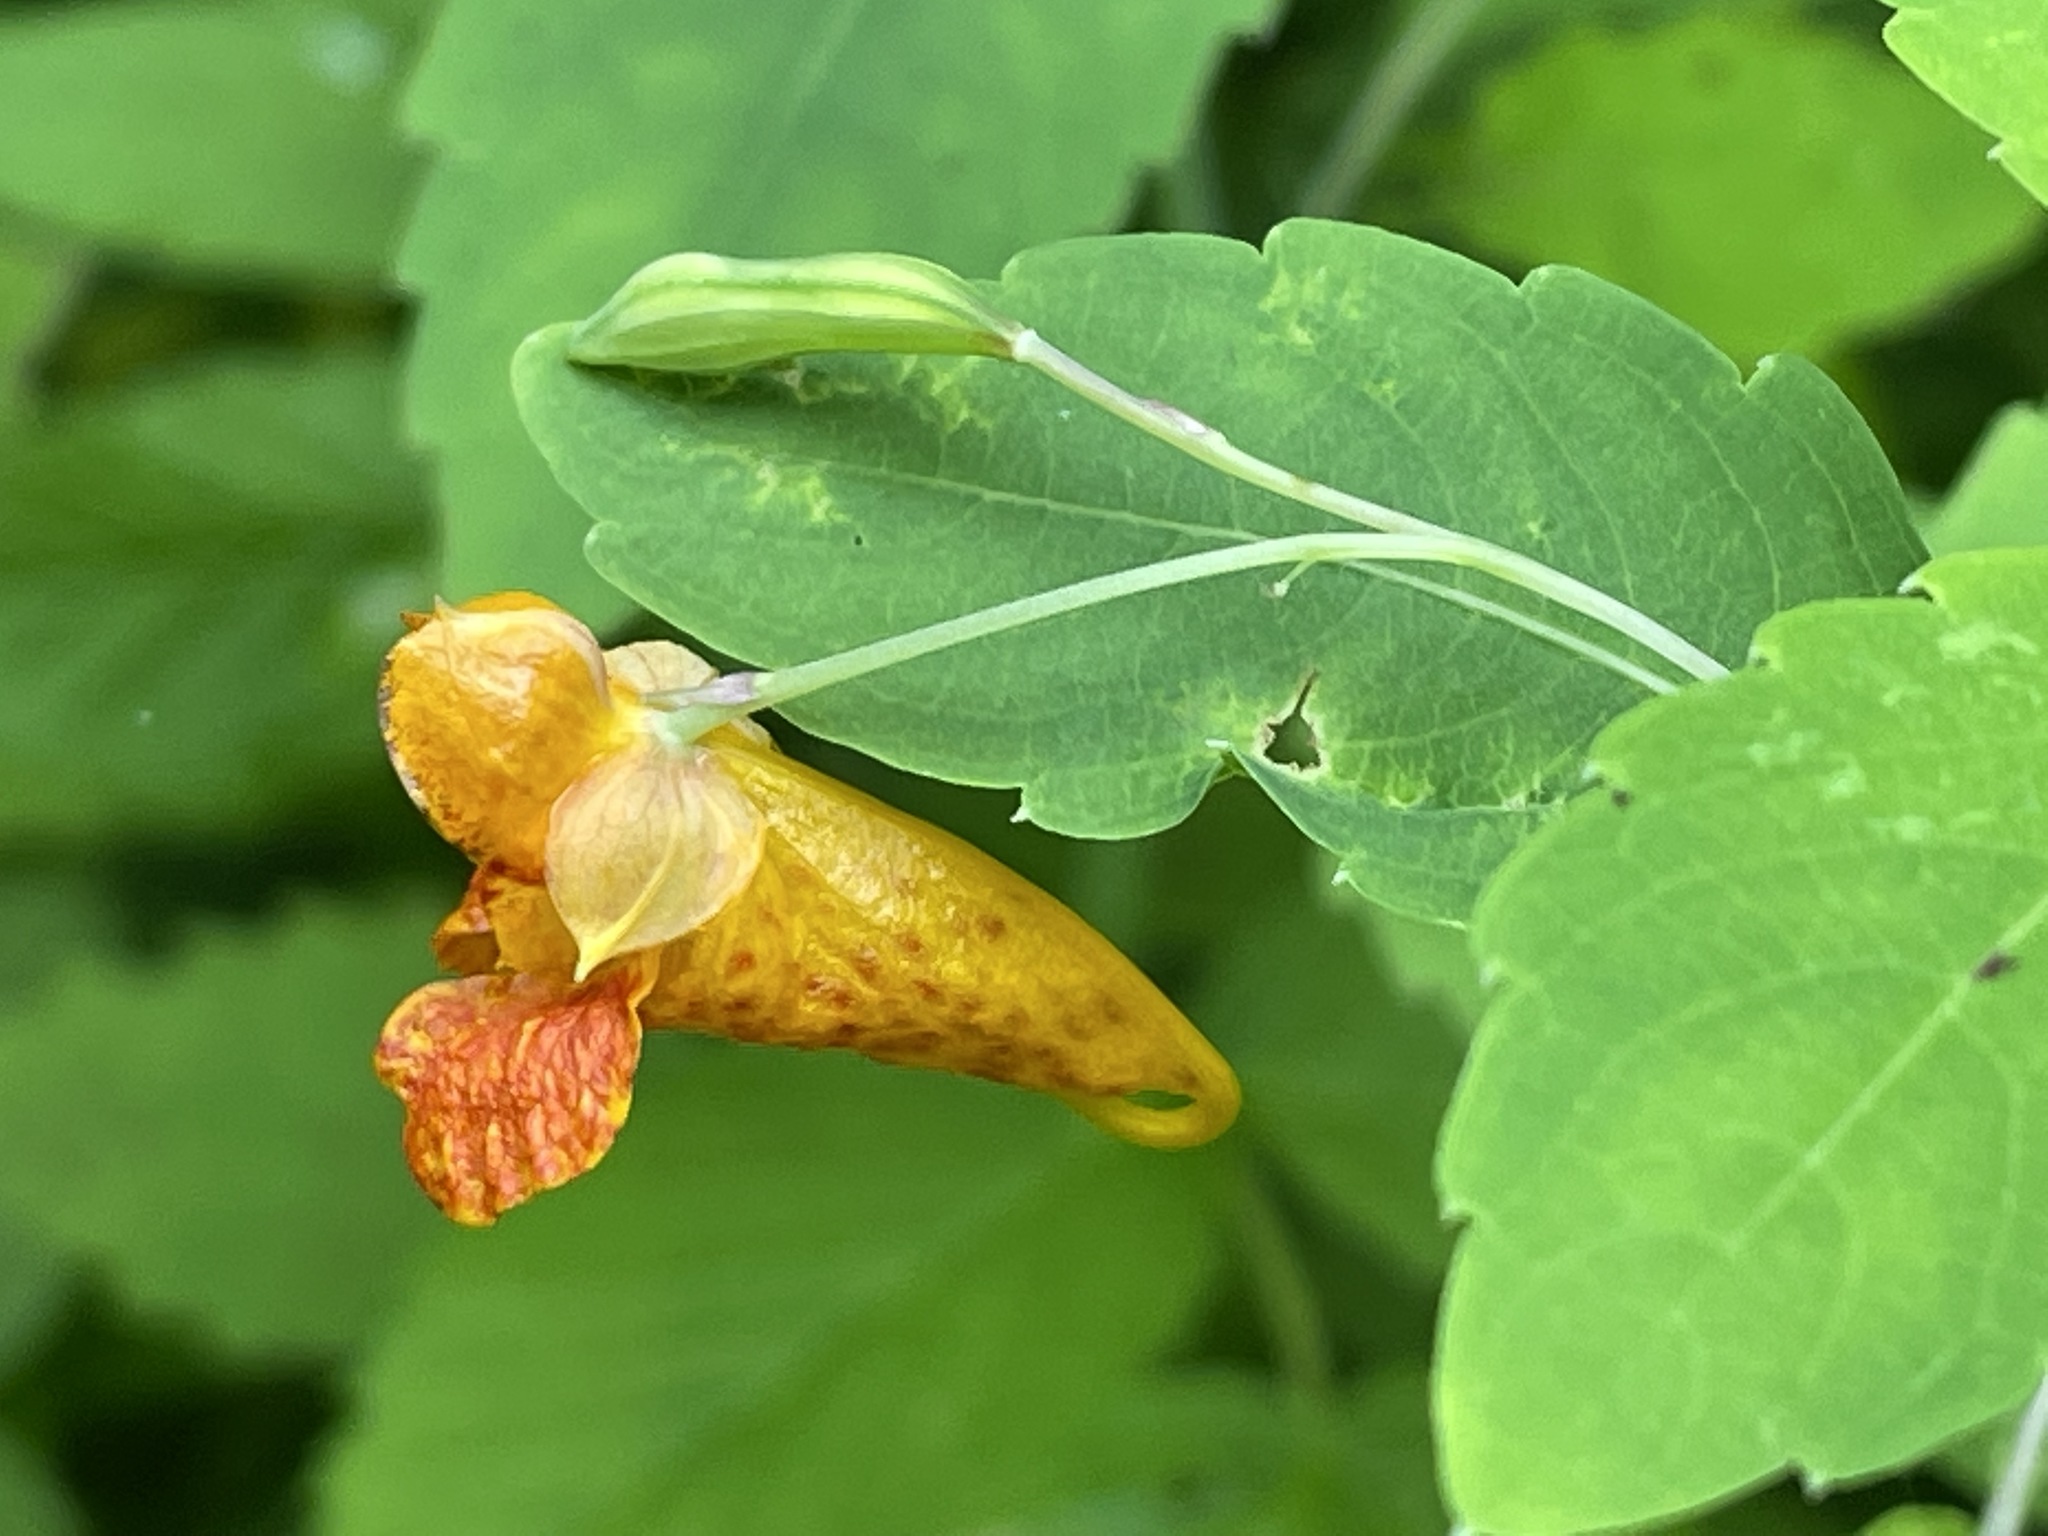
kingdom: Plantae
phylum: Tracheophyta
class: Magnoliopsida
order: Ericales
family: Balsaminaceae
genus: Impatiens
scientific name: Impatiens capensis
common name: Orange balsam
